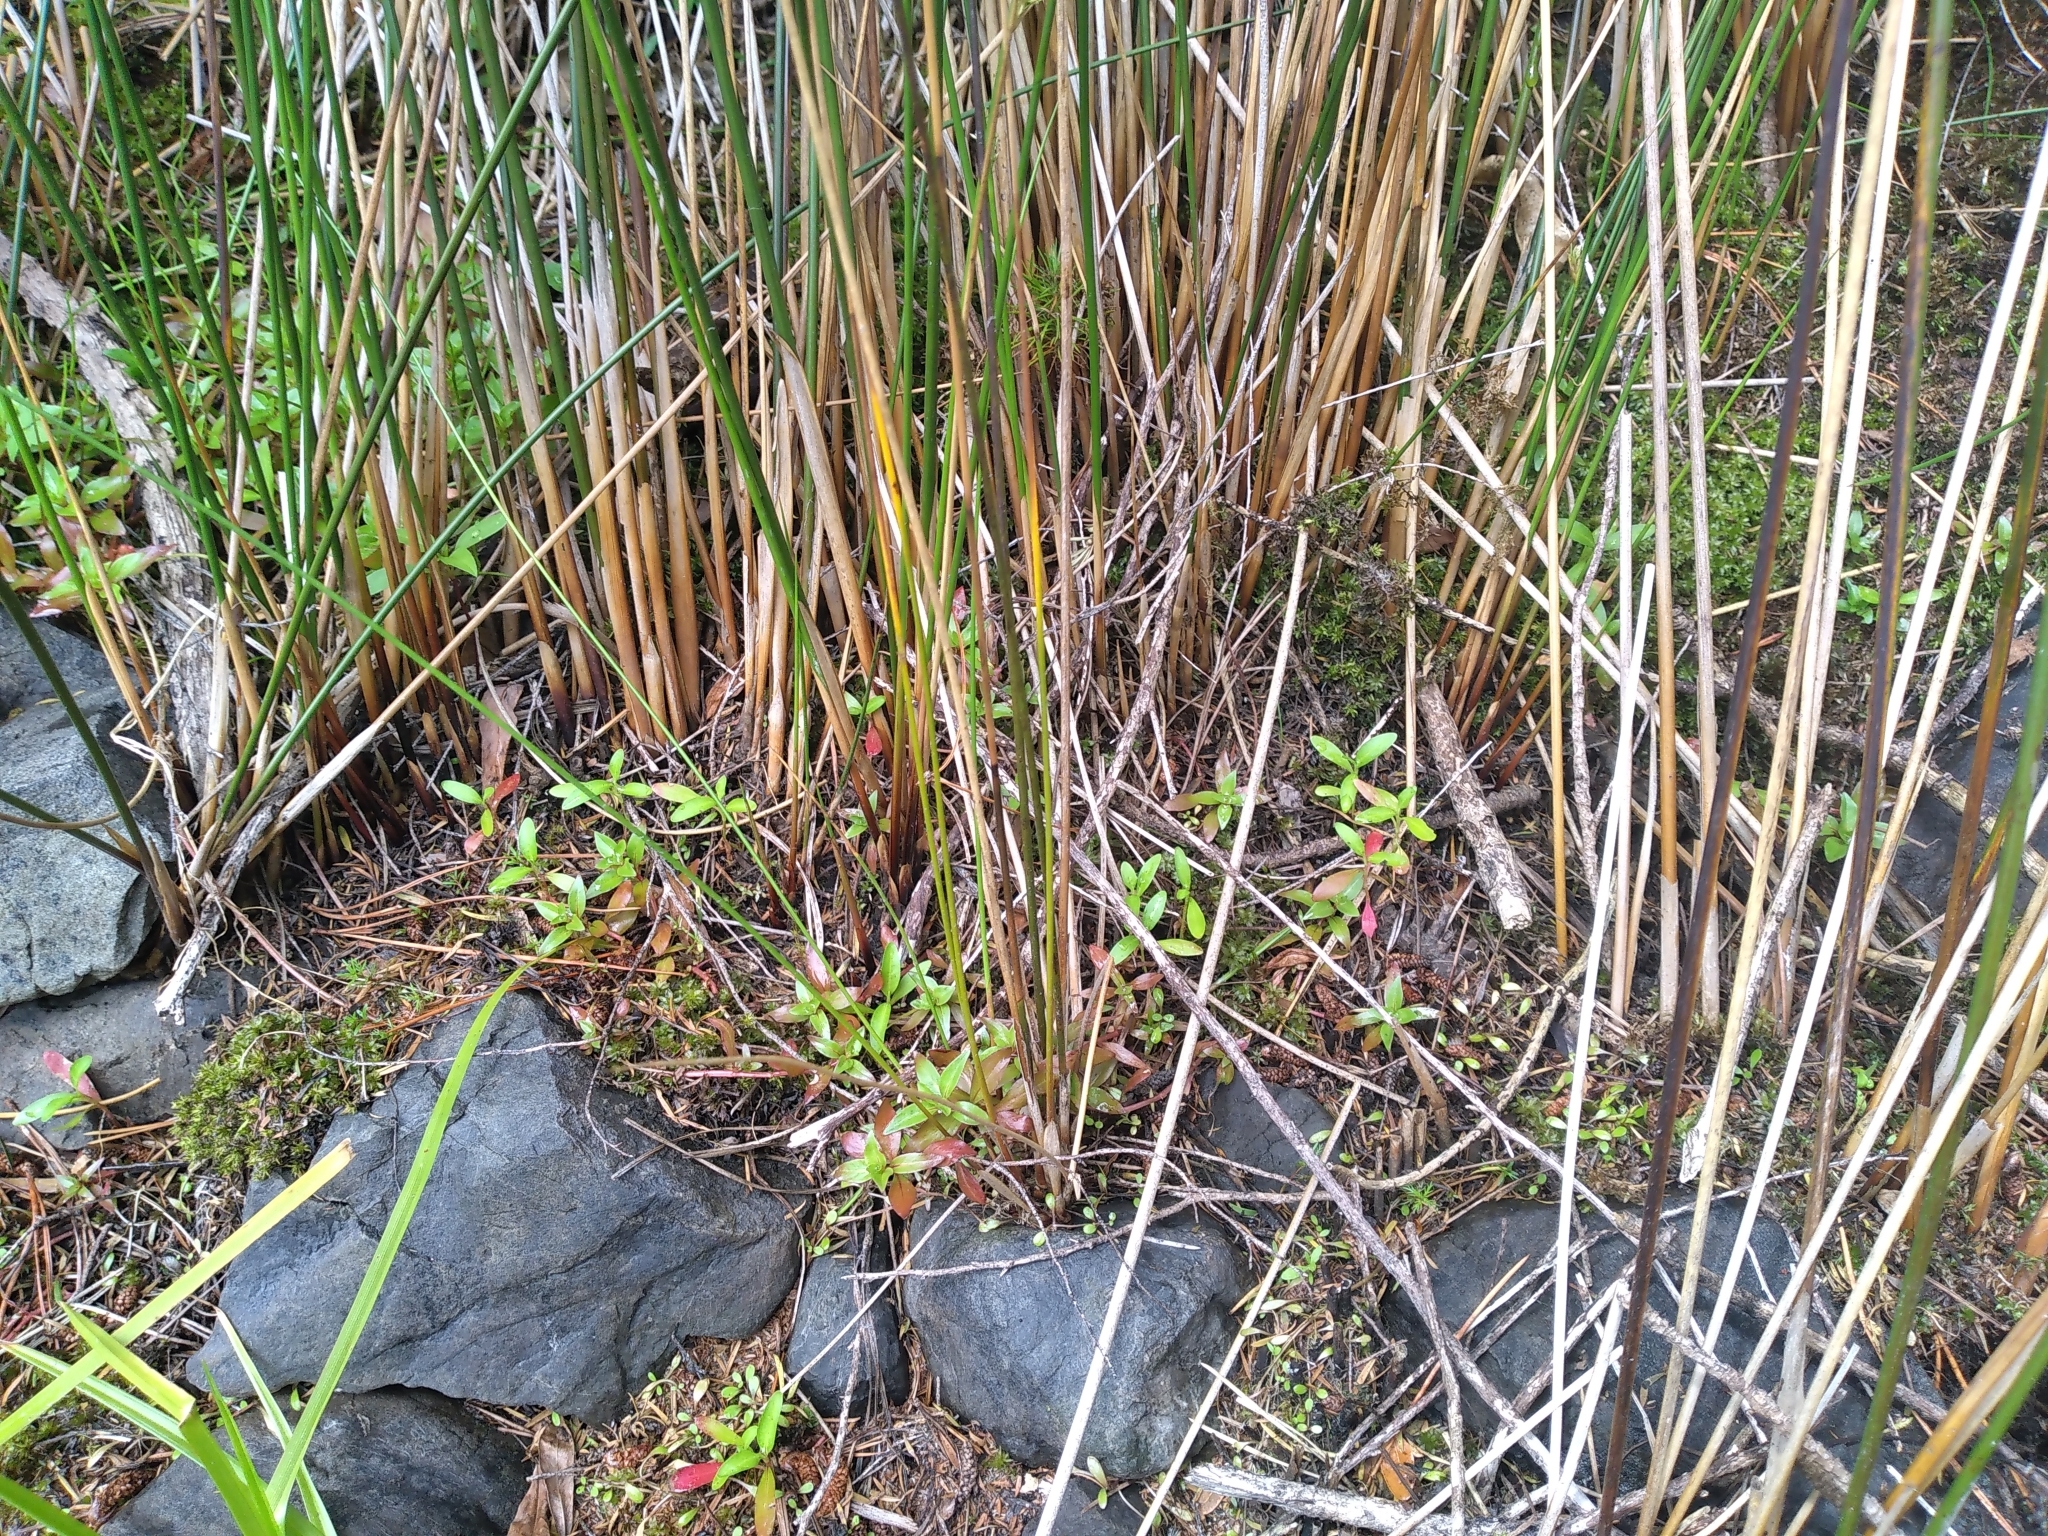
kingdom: Plantae
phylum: Tracheophyta
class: Liliopsida
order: Poales
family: Juncaceae
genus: Juncus
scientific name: Juncus semisolidus
